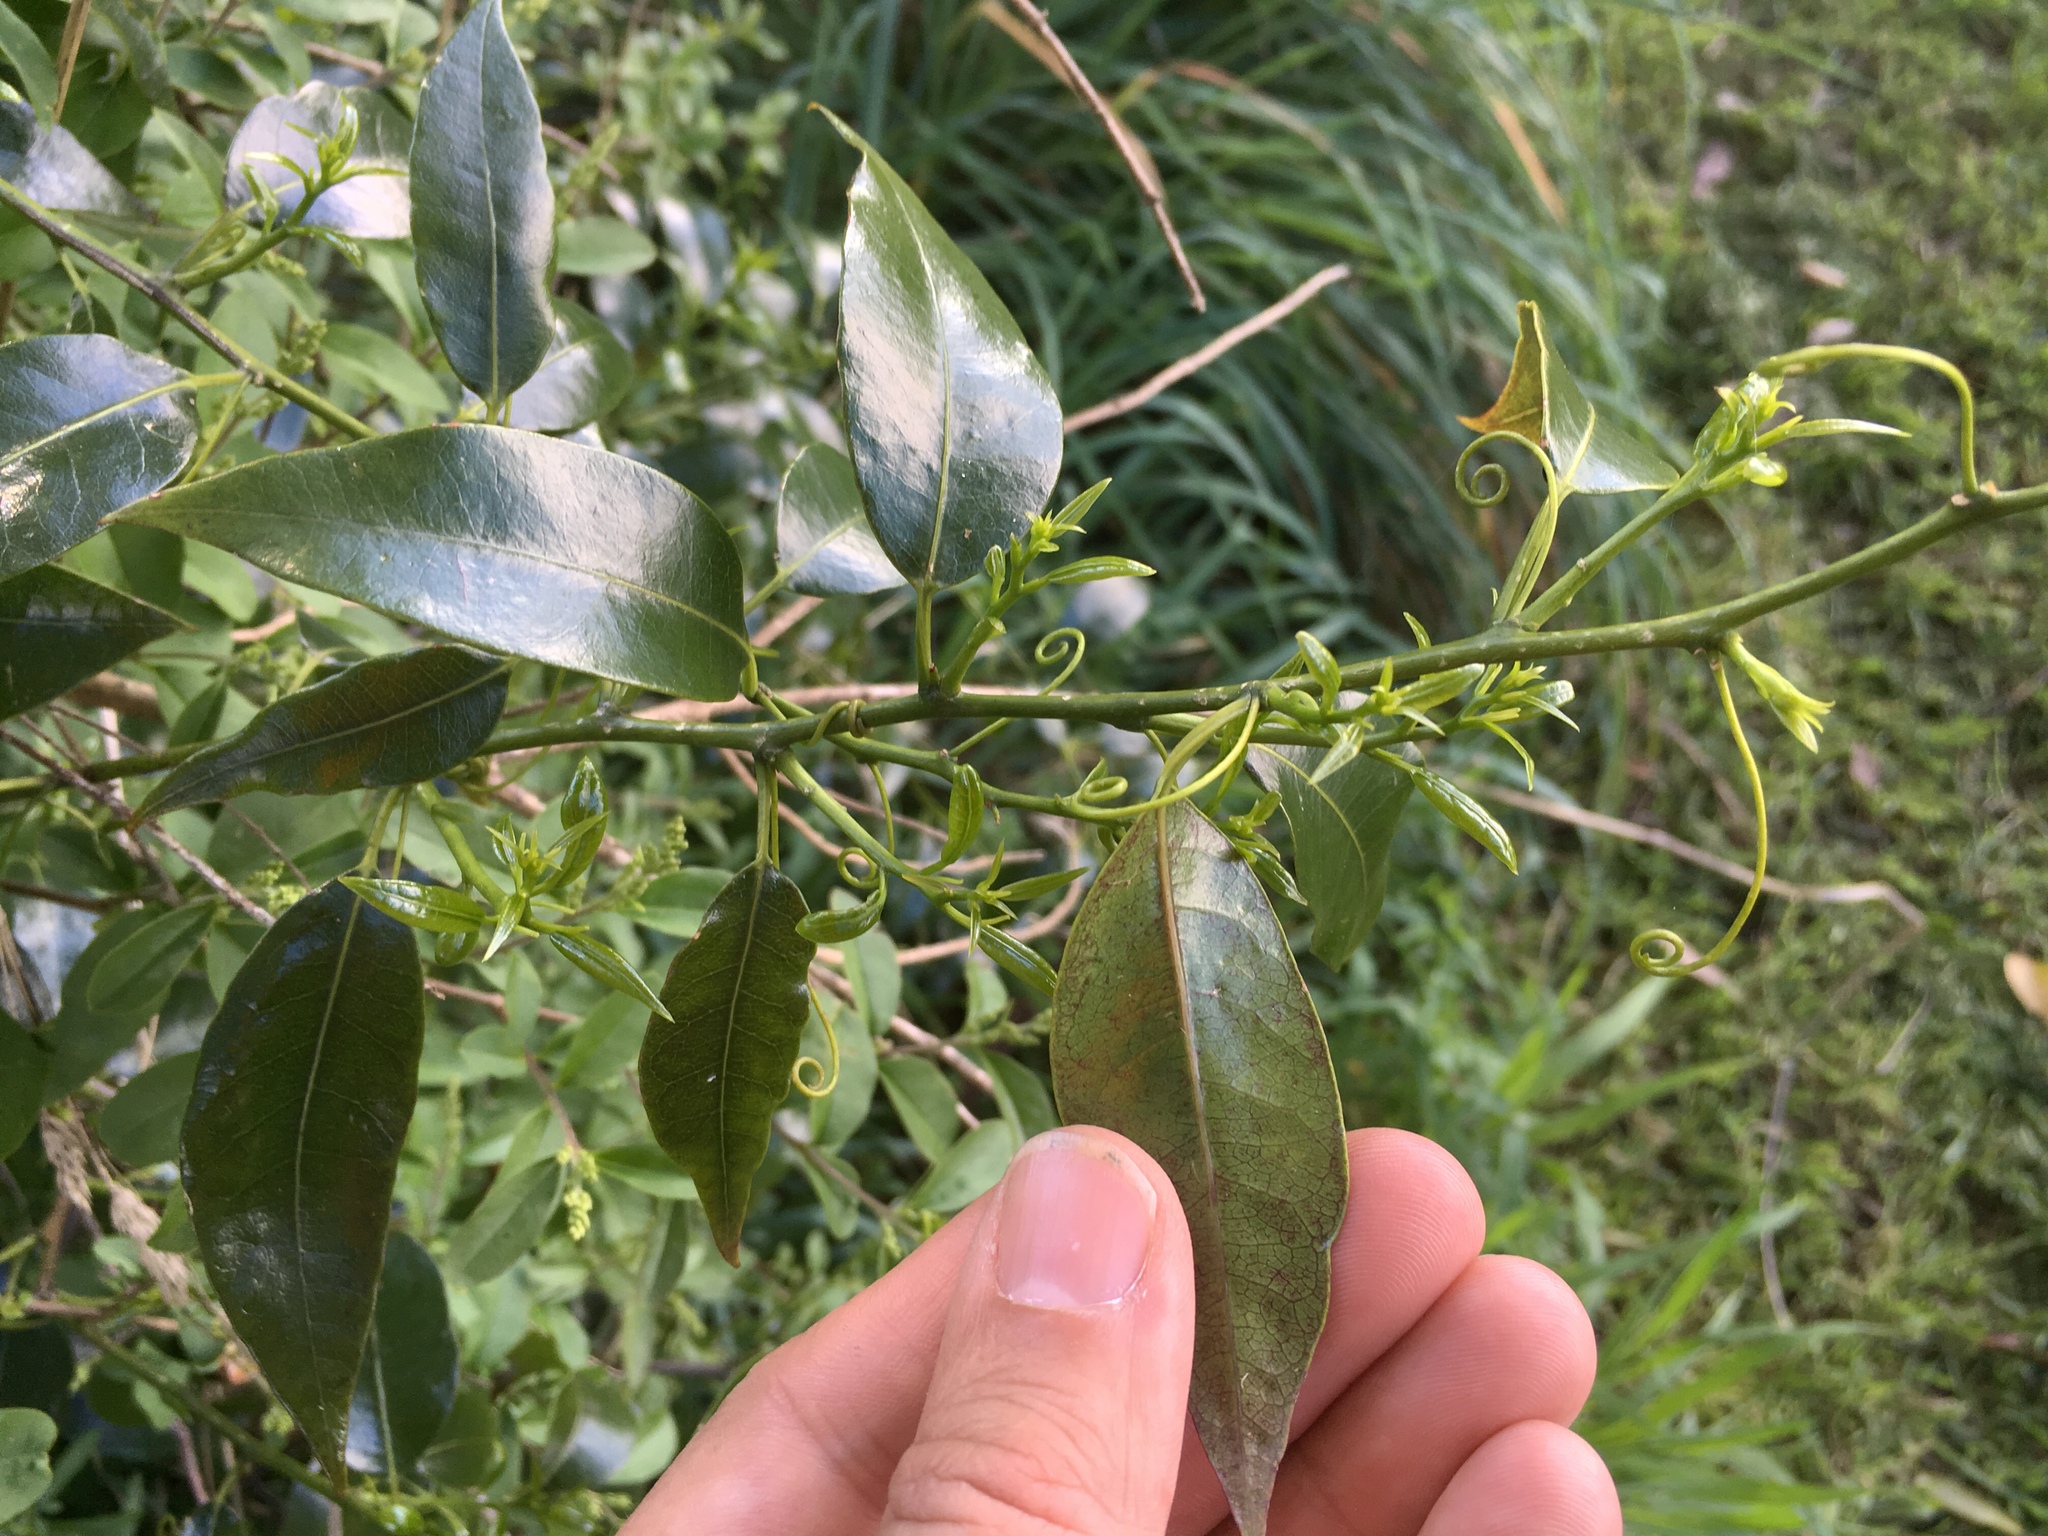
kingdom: Plantae
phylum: Tracheophyta
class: Magnoliopsida
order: Malpighiales
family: Passifloraceae
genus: Passiflora
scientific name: Passiflora tetrandra
